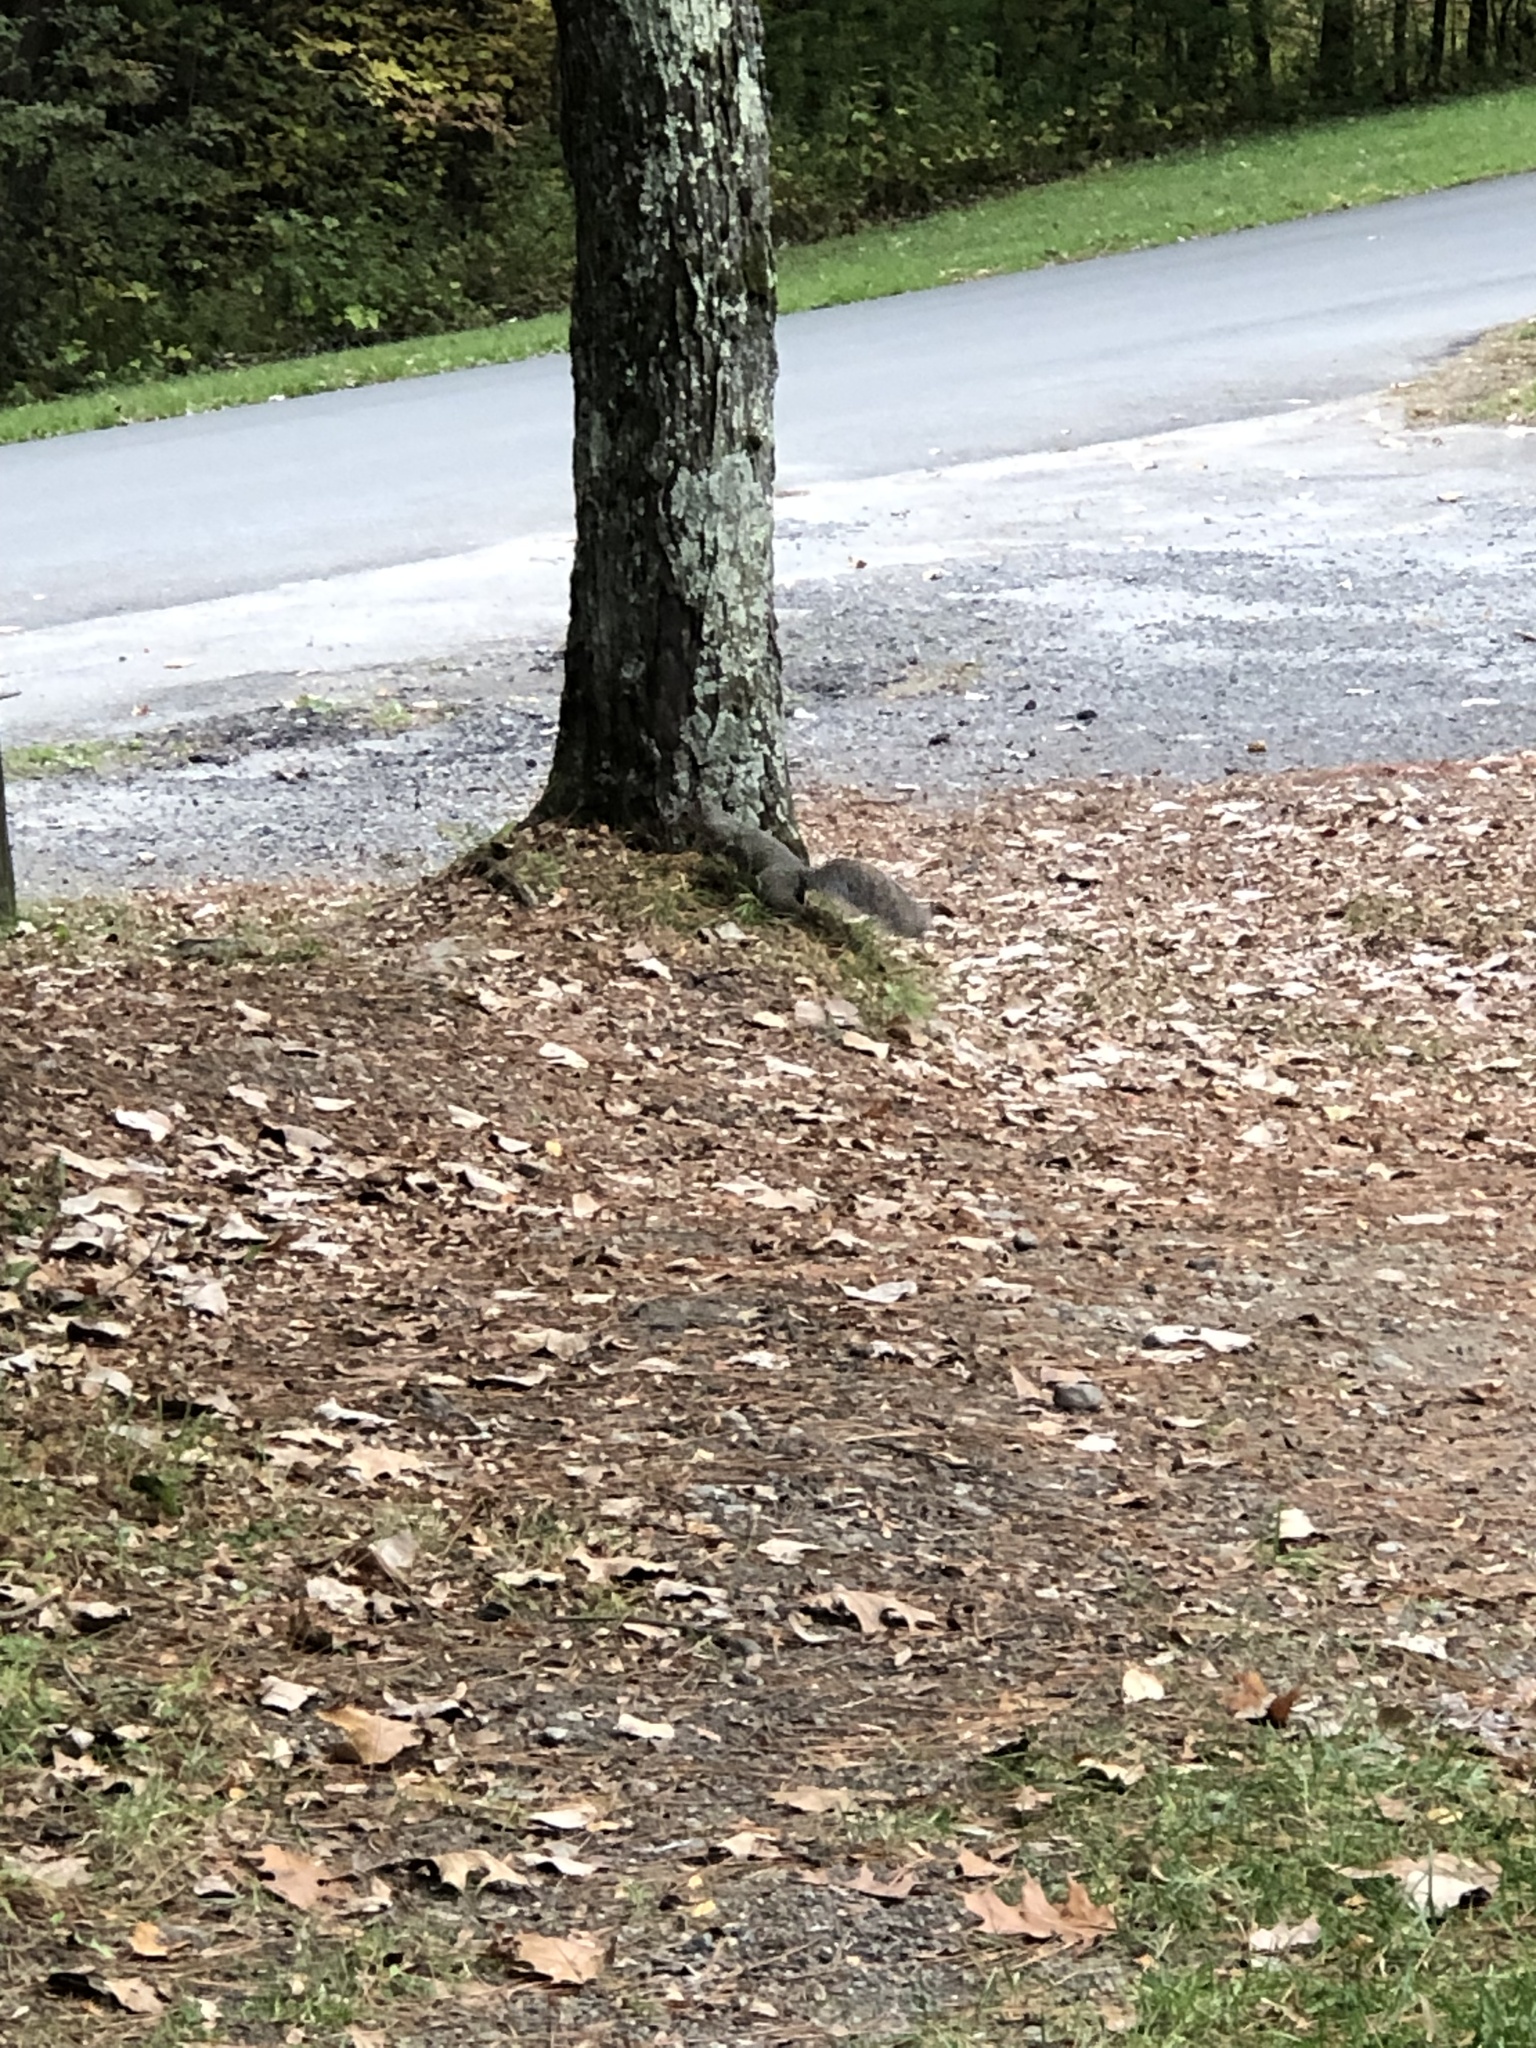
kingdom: Animalia
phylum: Chordata
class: Mammalia
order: Rodentia
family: Sciuridae
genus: Sciurus
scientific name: Sciurus carolinensis
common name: Eastern gray squirrel
